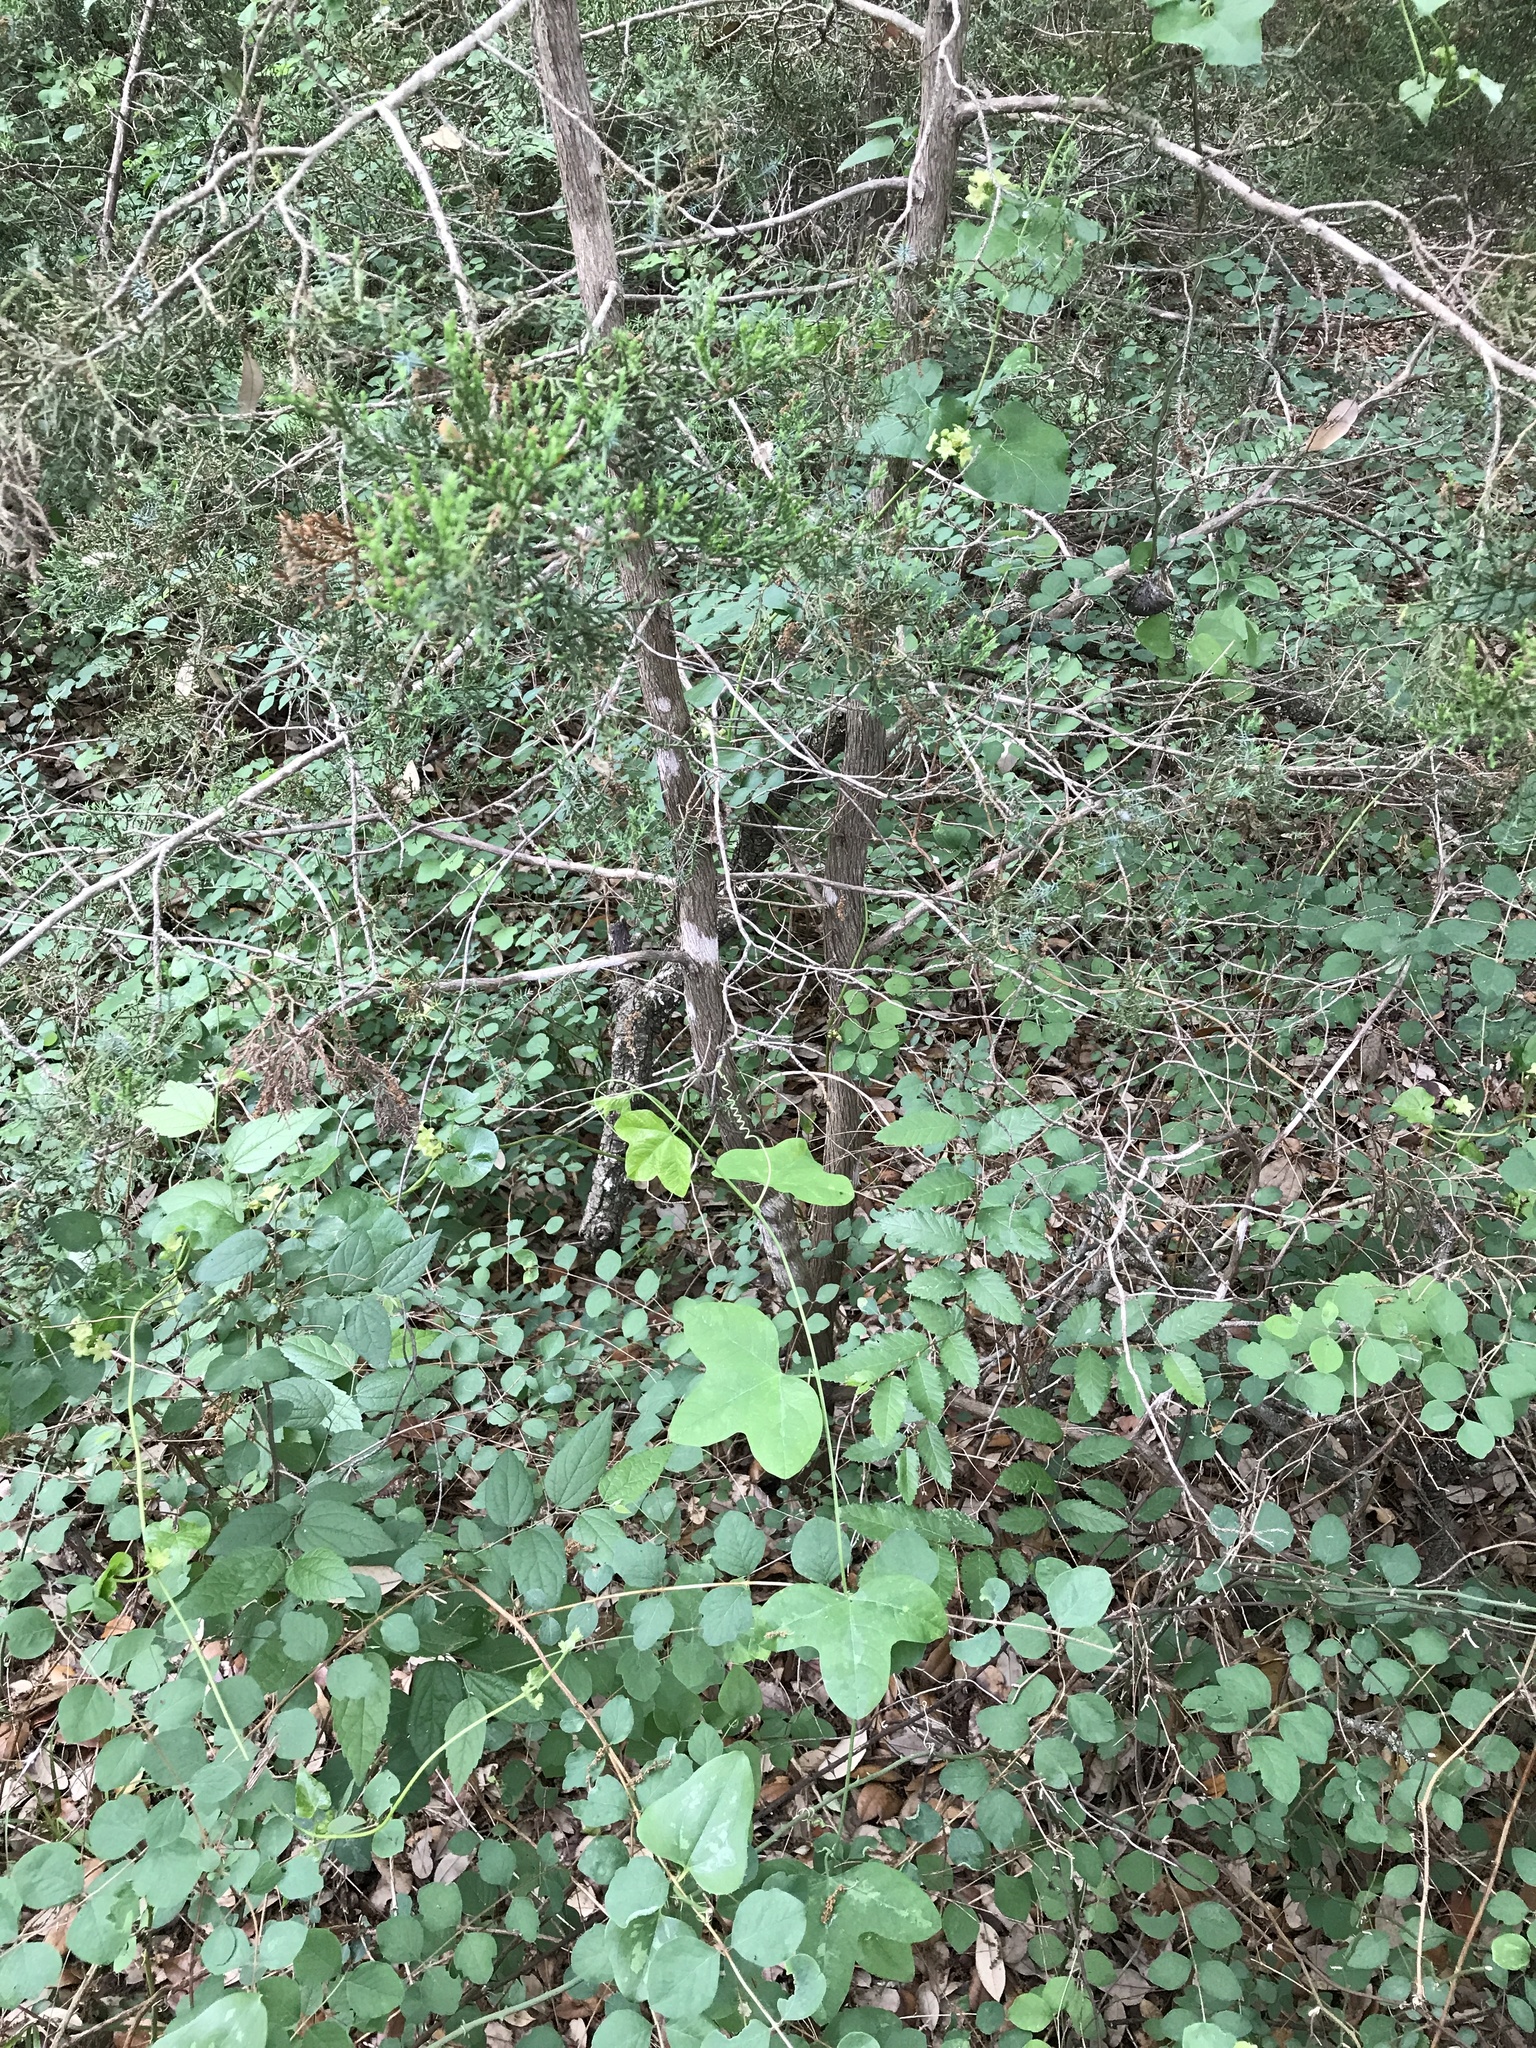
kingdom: Plantae
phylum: Tracheophyta
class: Magnoliopsida
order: Gentianales
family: Apocynaceae
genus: Matelea
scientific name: Matelea edwardsensis
